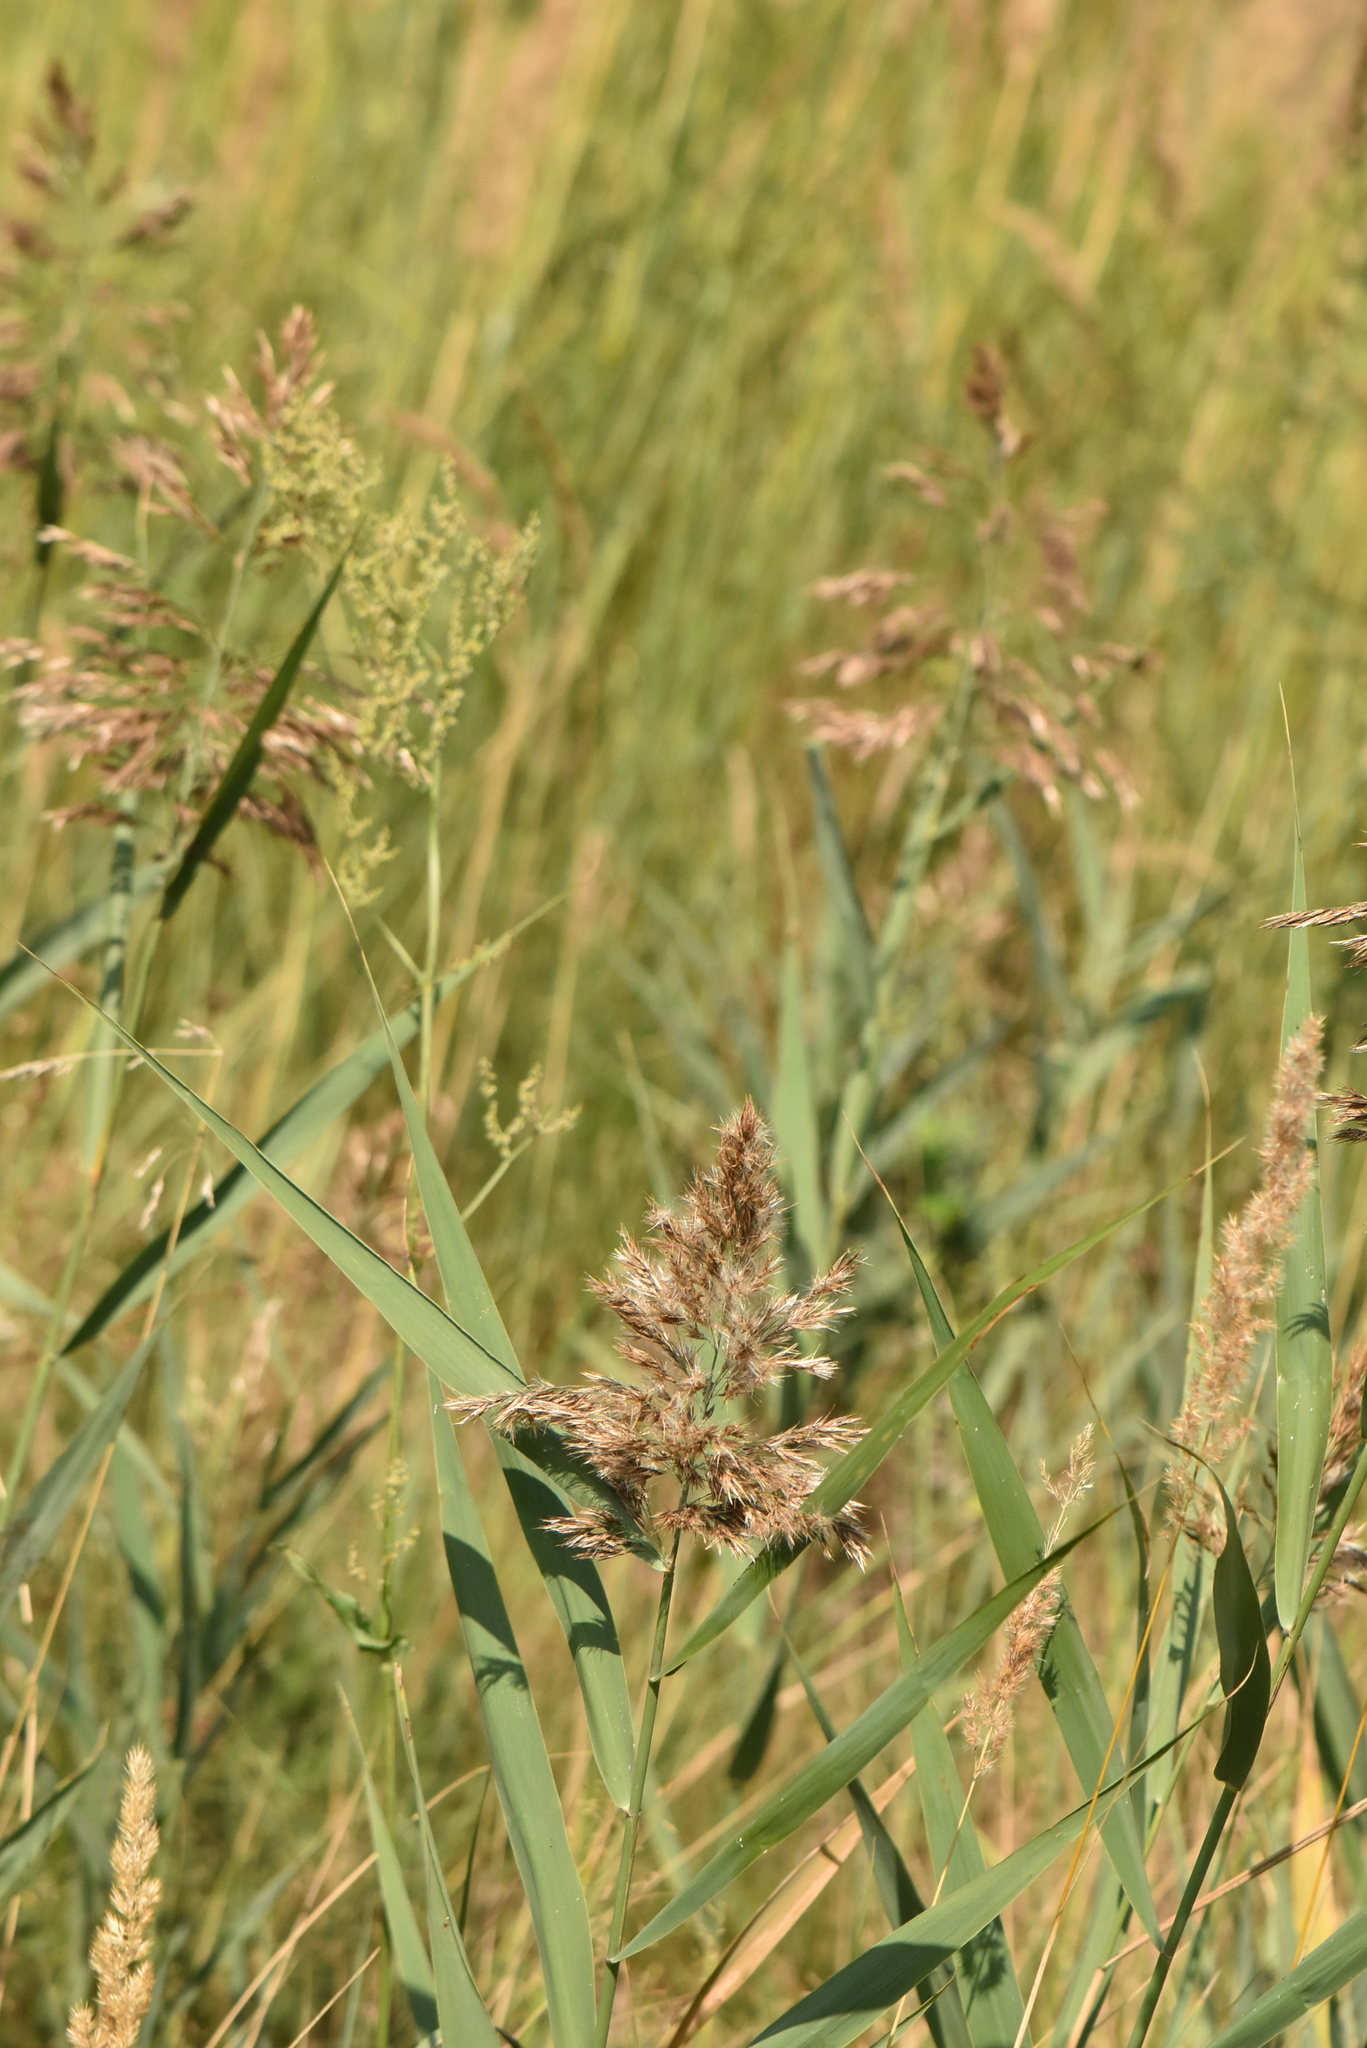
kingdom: Plantae
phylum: Tracheophyta
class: Liliopsida
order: Poales
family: Poaceae
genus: Phragmites
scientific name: Phragmites australis
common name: Common reed
